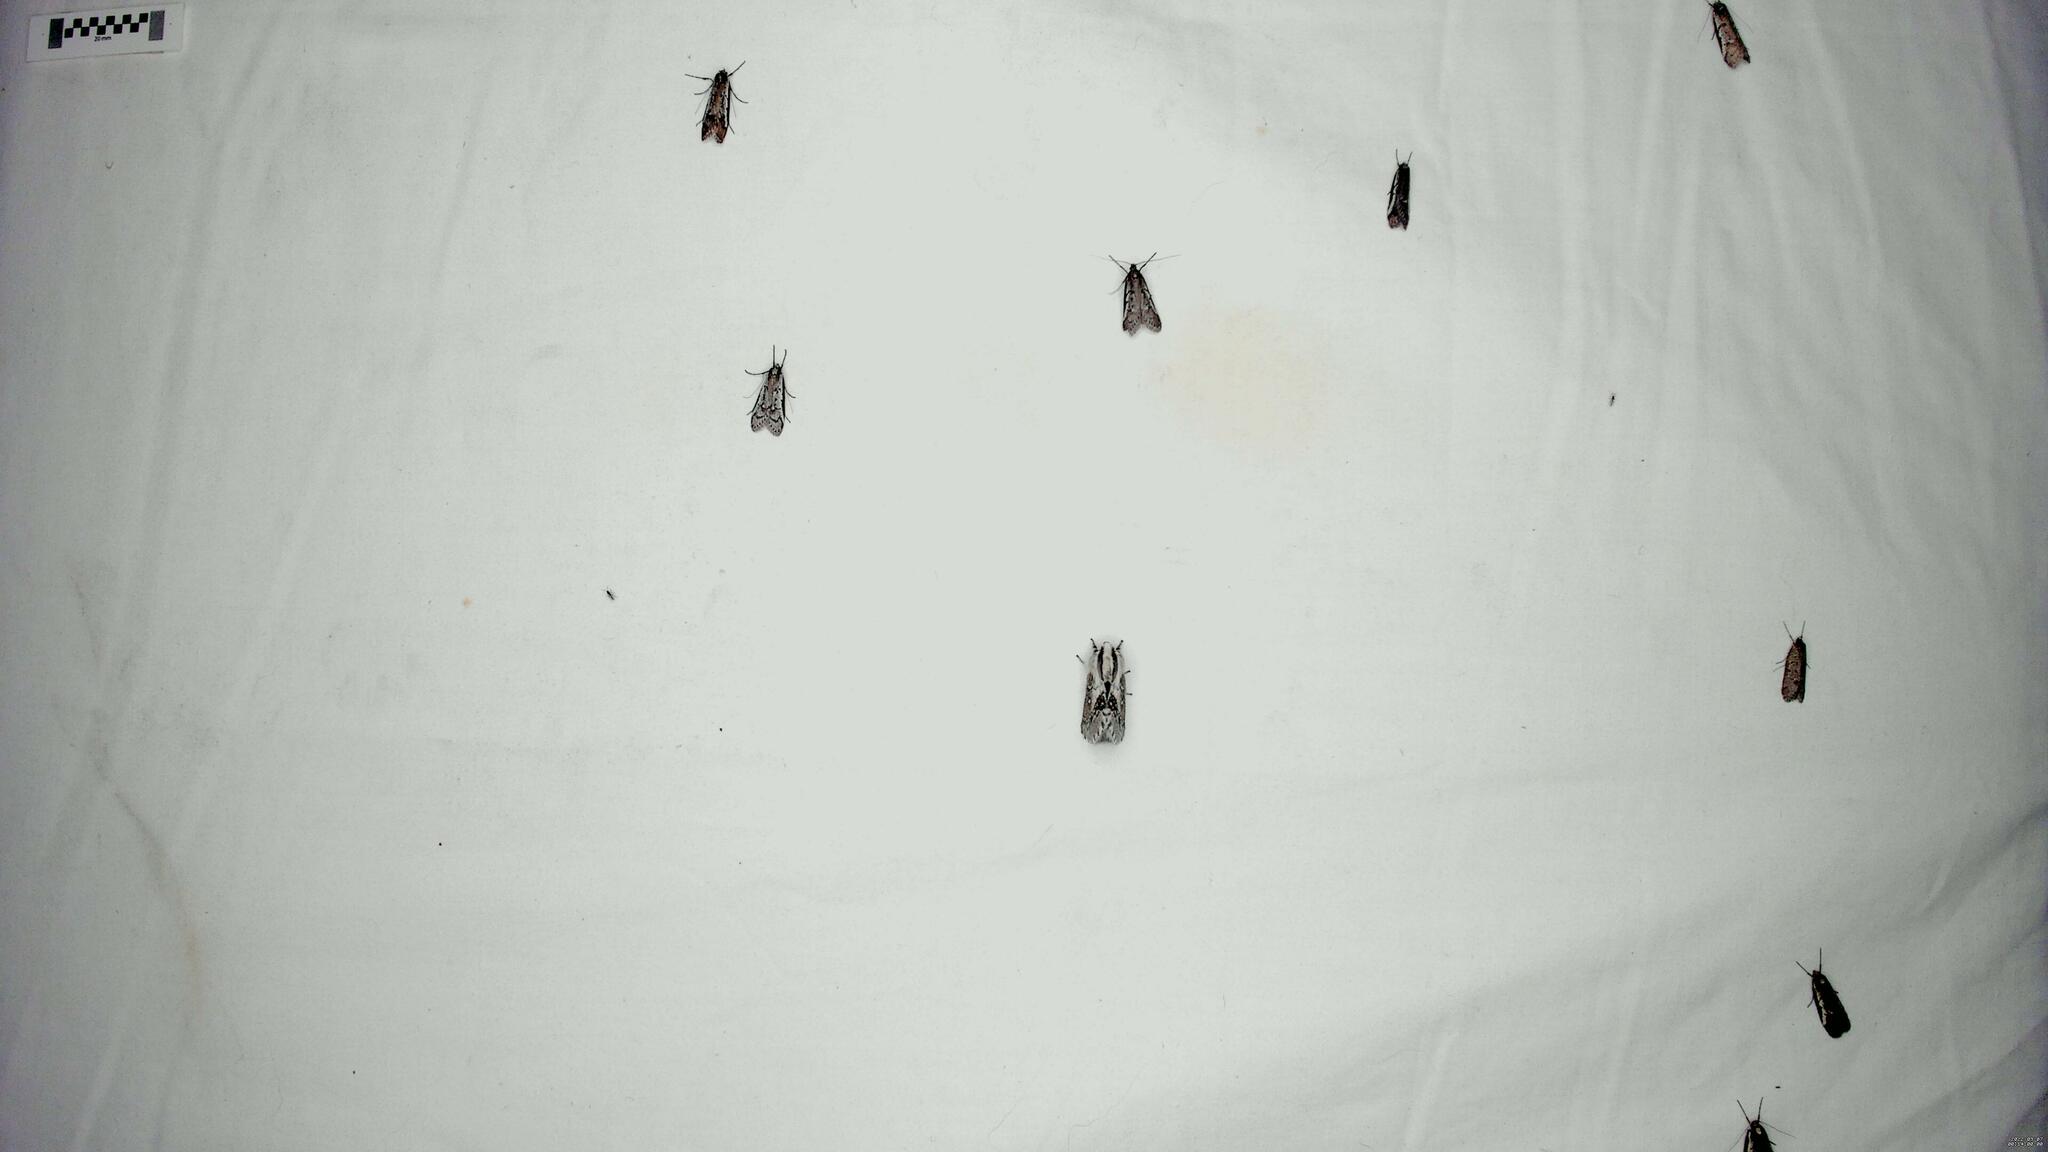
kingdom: Animalia
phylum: Arthropoda
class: Insecta
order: Lepidoptera
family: Oecophoridae
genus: Philobota
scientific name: Philobota stella
